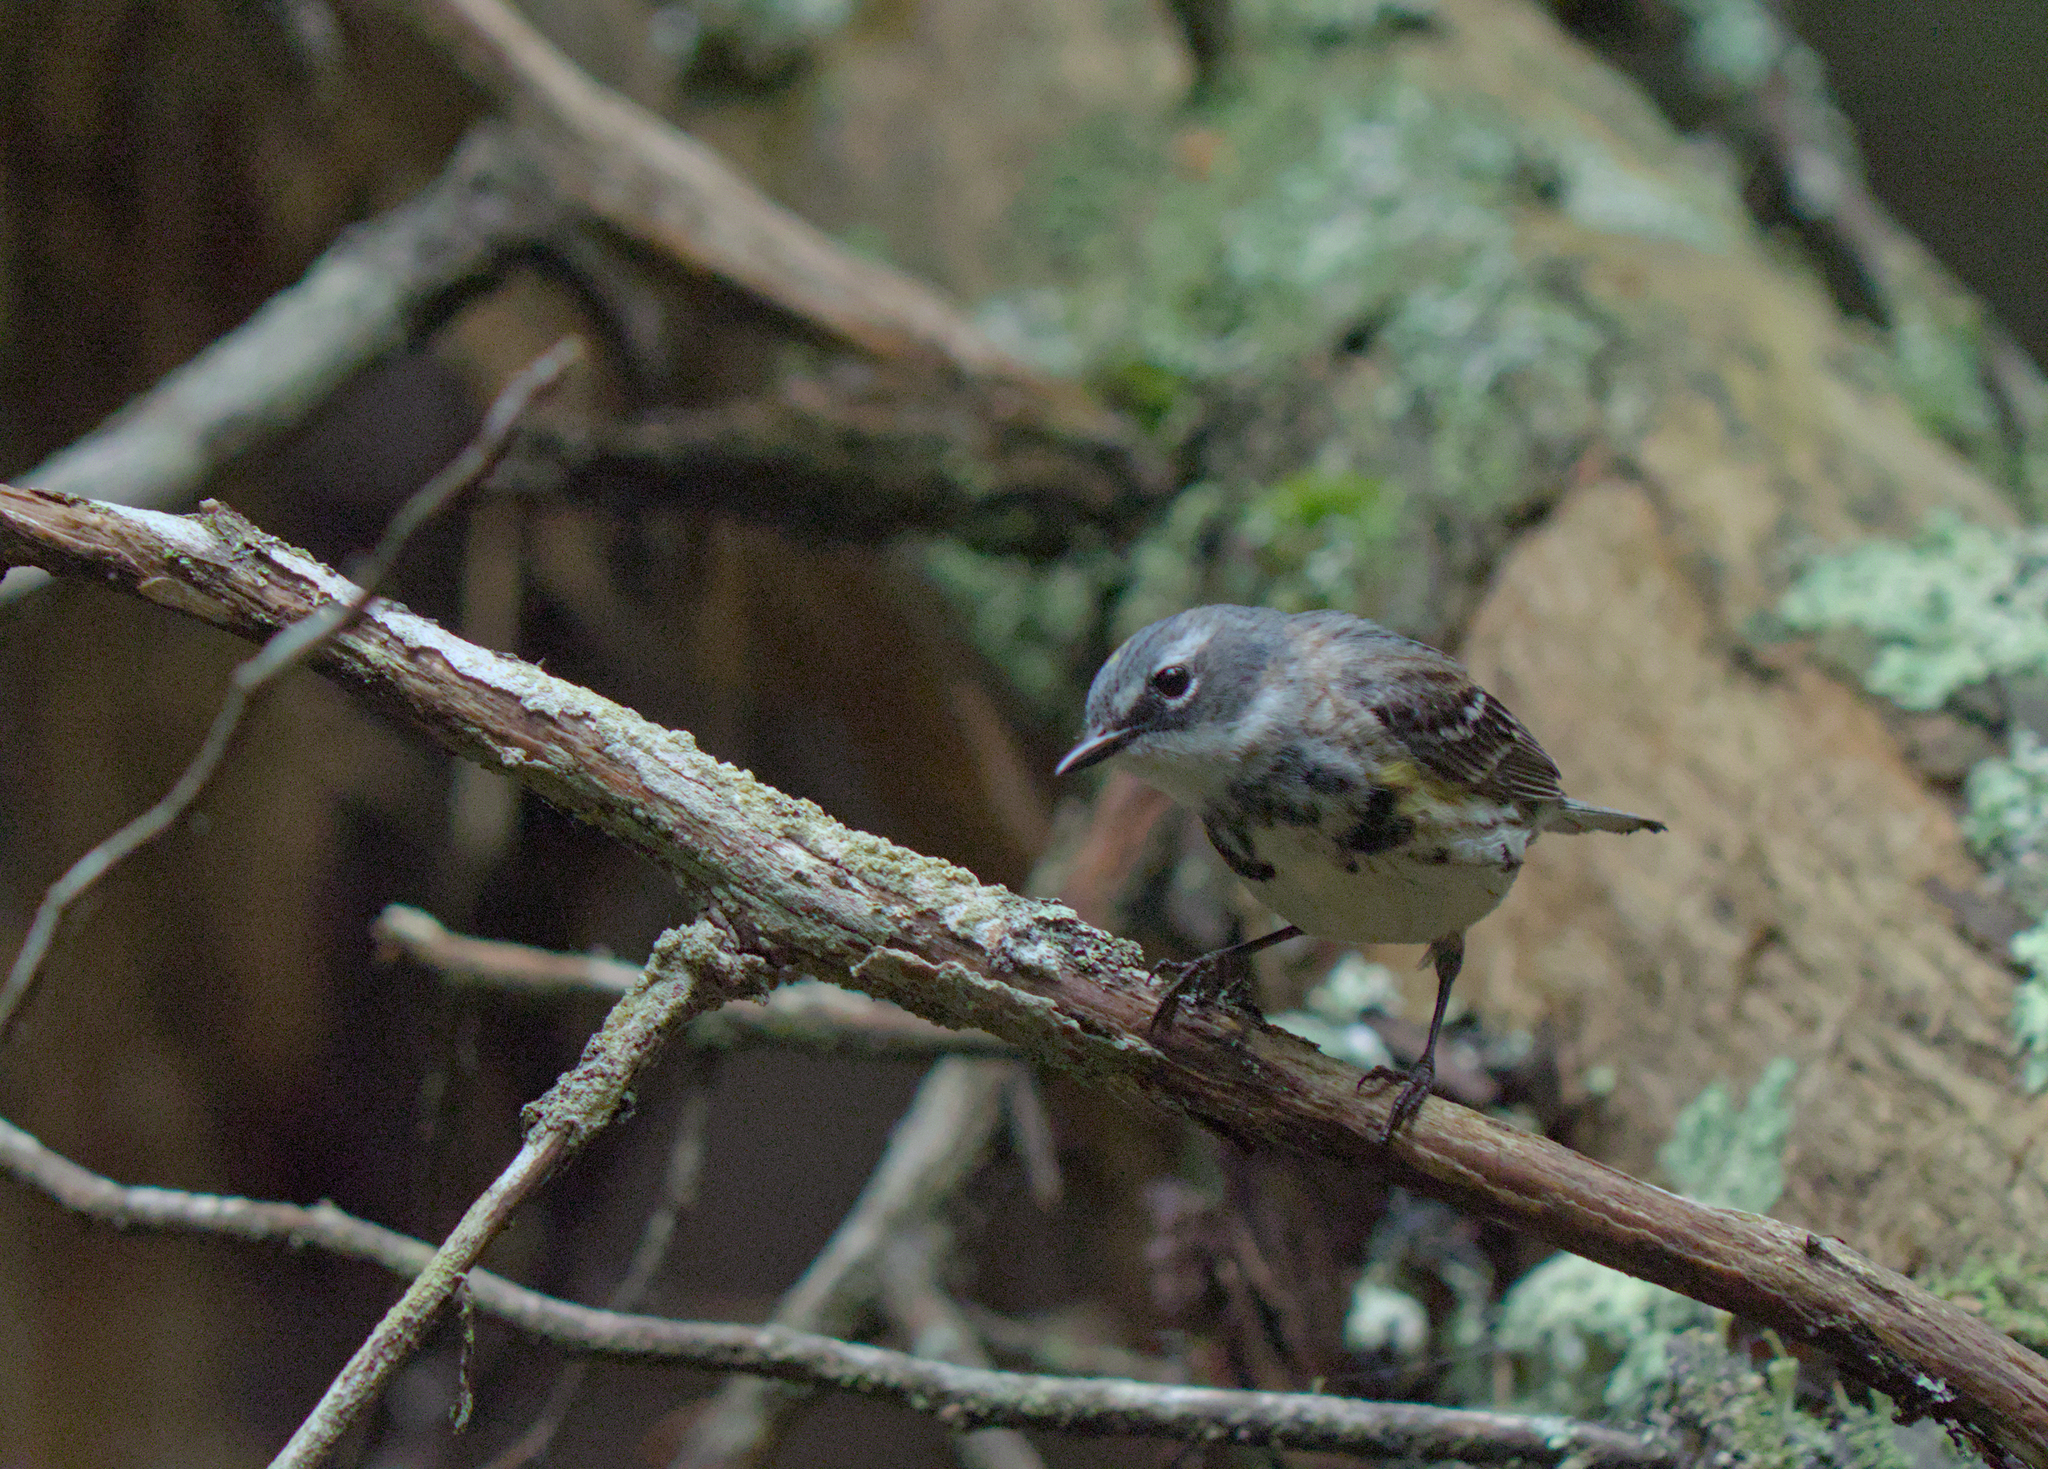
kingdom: Animalia
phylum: Chordata
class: Aves
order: Passeriformes
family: Parulidae
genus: Setophaga
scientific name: Setophaga coronata
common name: Myrtle warbler
